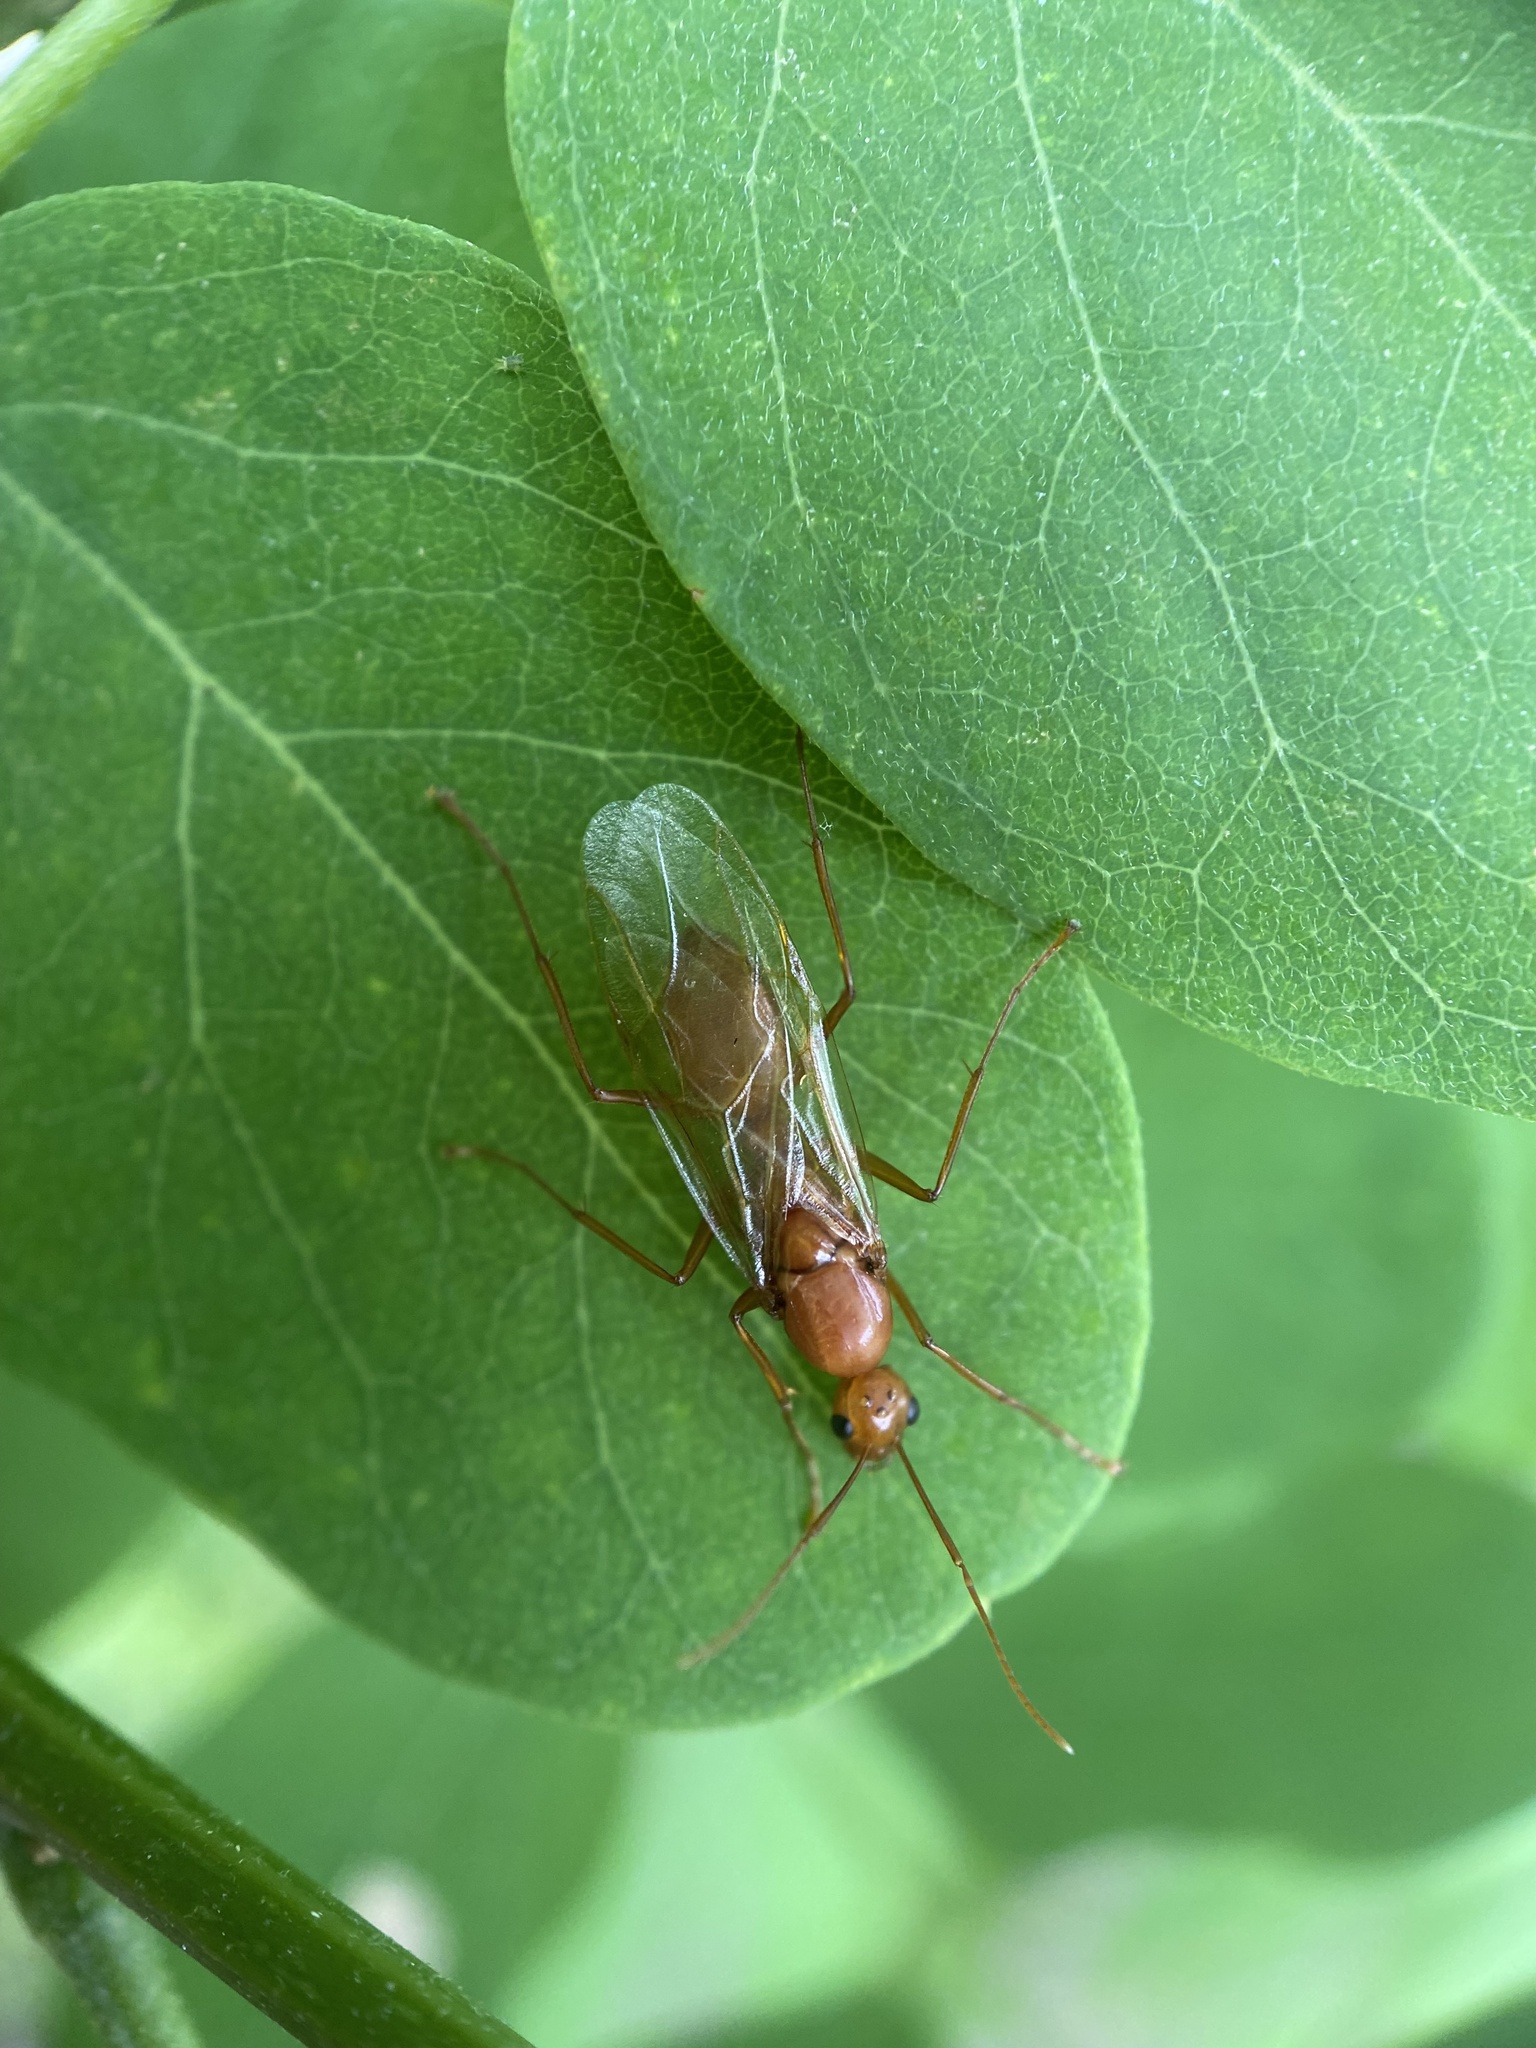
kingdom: Animalia
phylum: Arthropoda
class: Insecta
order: Hymenoptera
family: Formicidae
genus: Camponotus
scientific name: Camponotus castaneus
